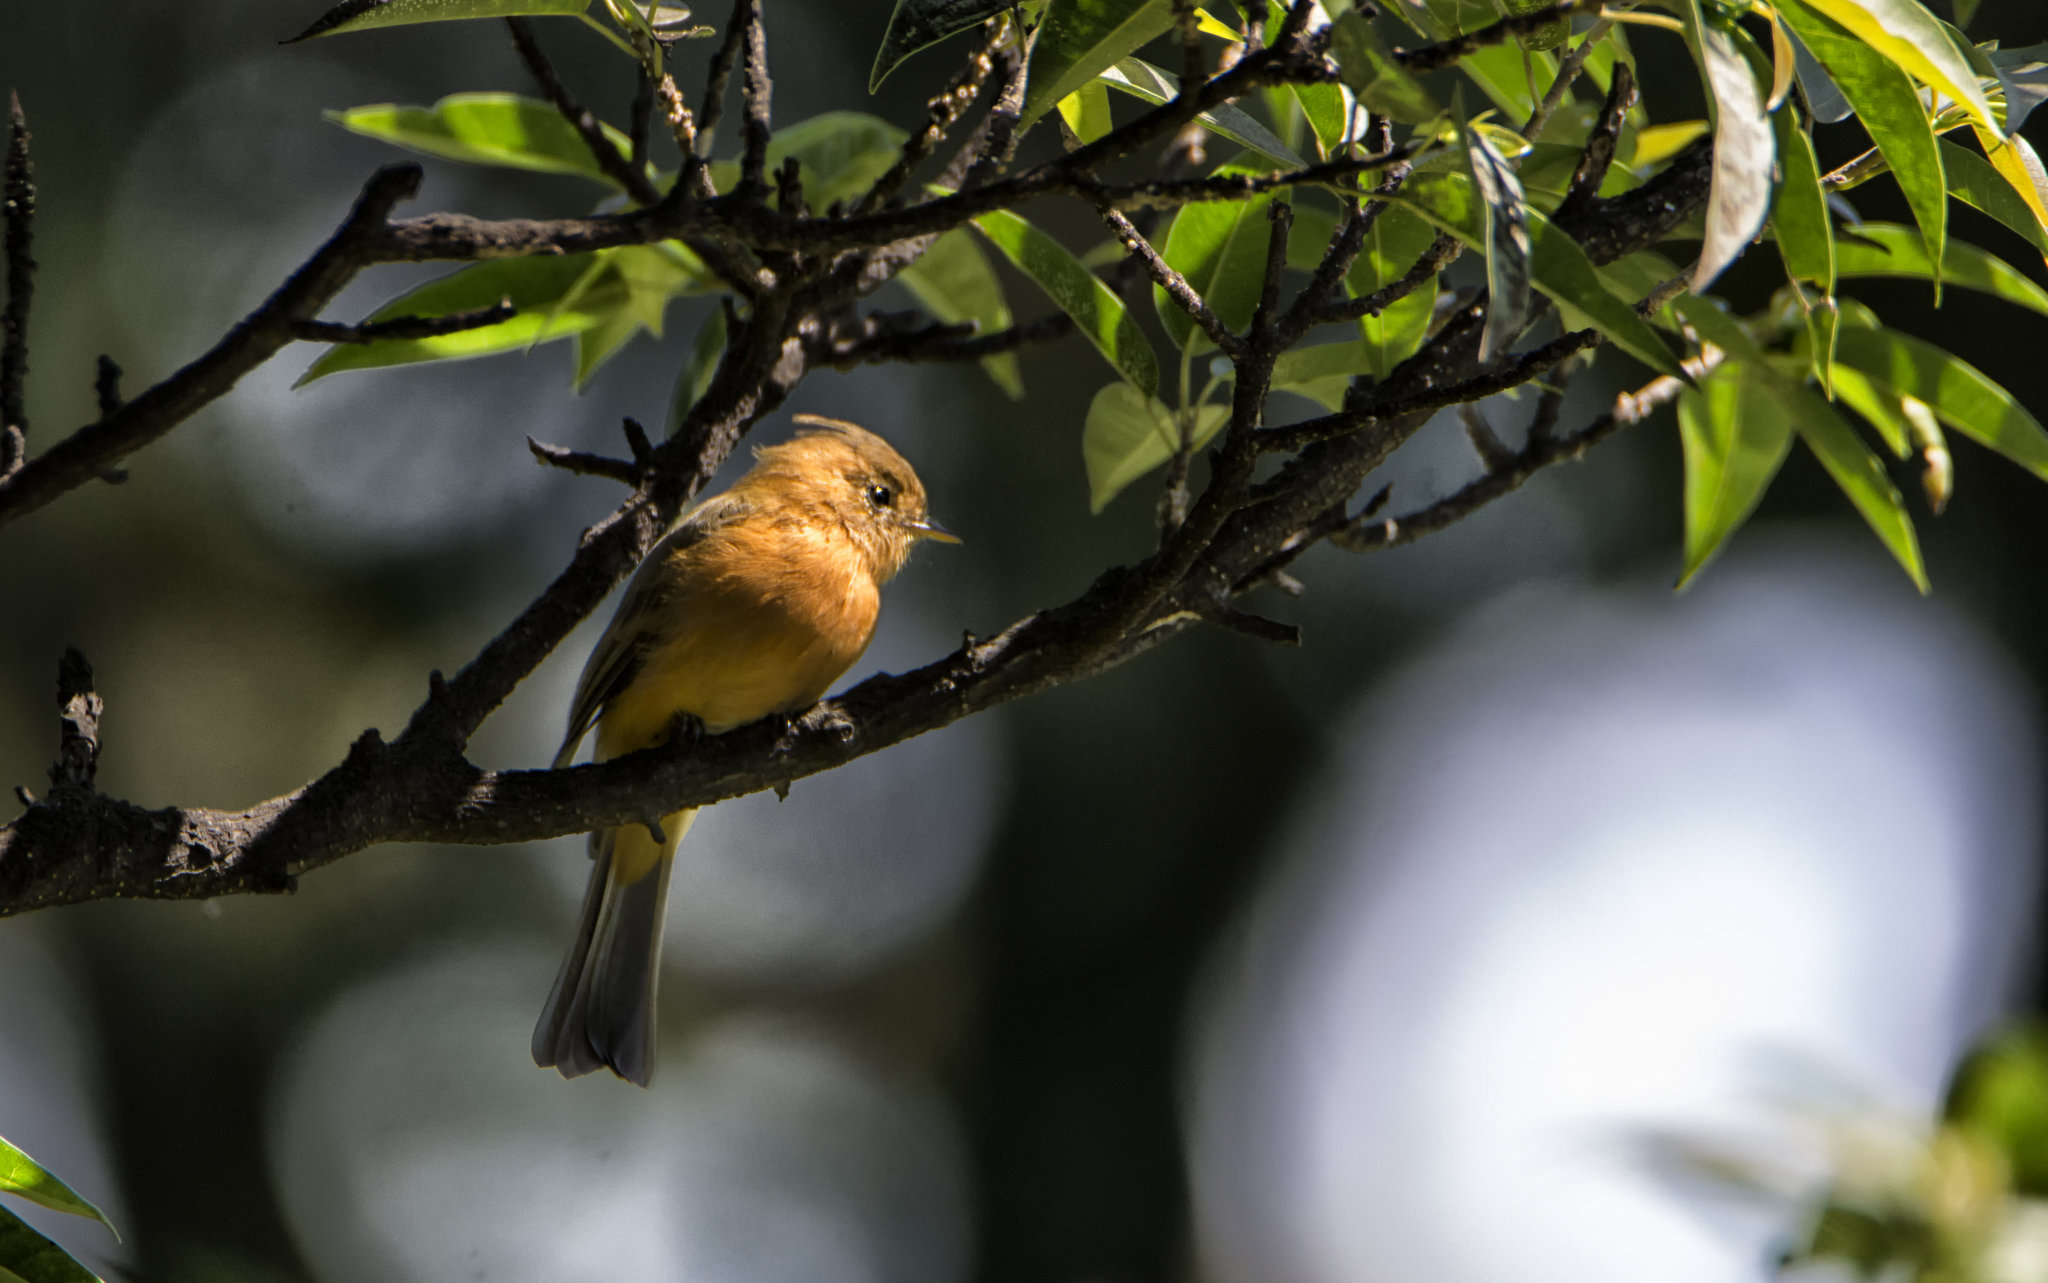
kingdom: Animalia
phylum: Chordata
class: Aves
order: Passeriformes
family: Tyrannidae
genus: Mitrephanes
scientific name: Mitrephanes phaeocercus
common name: Northern tufted flycatcher
